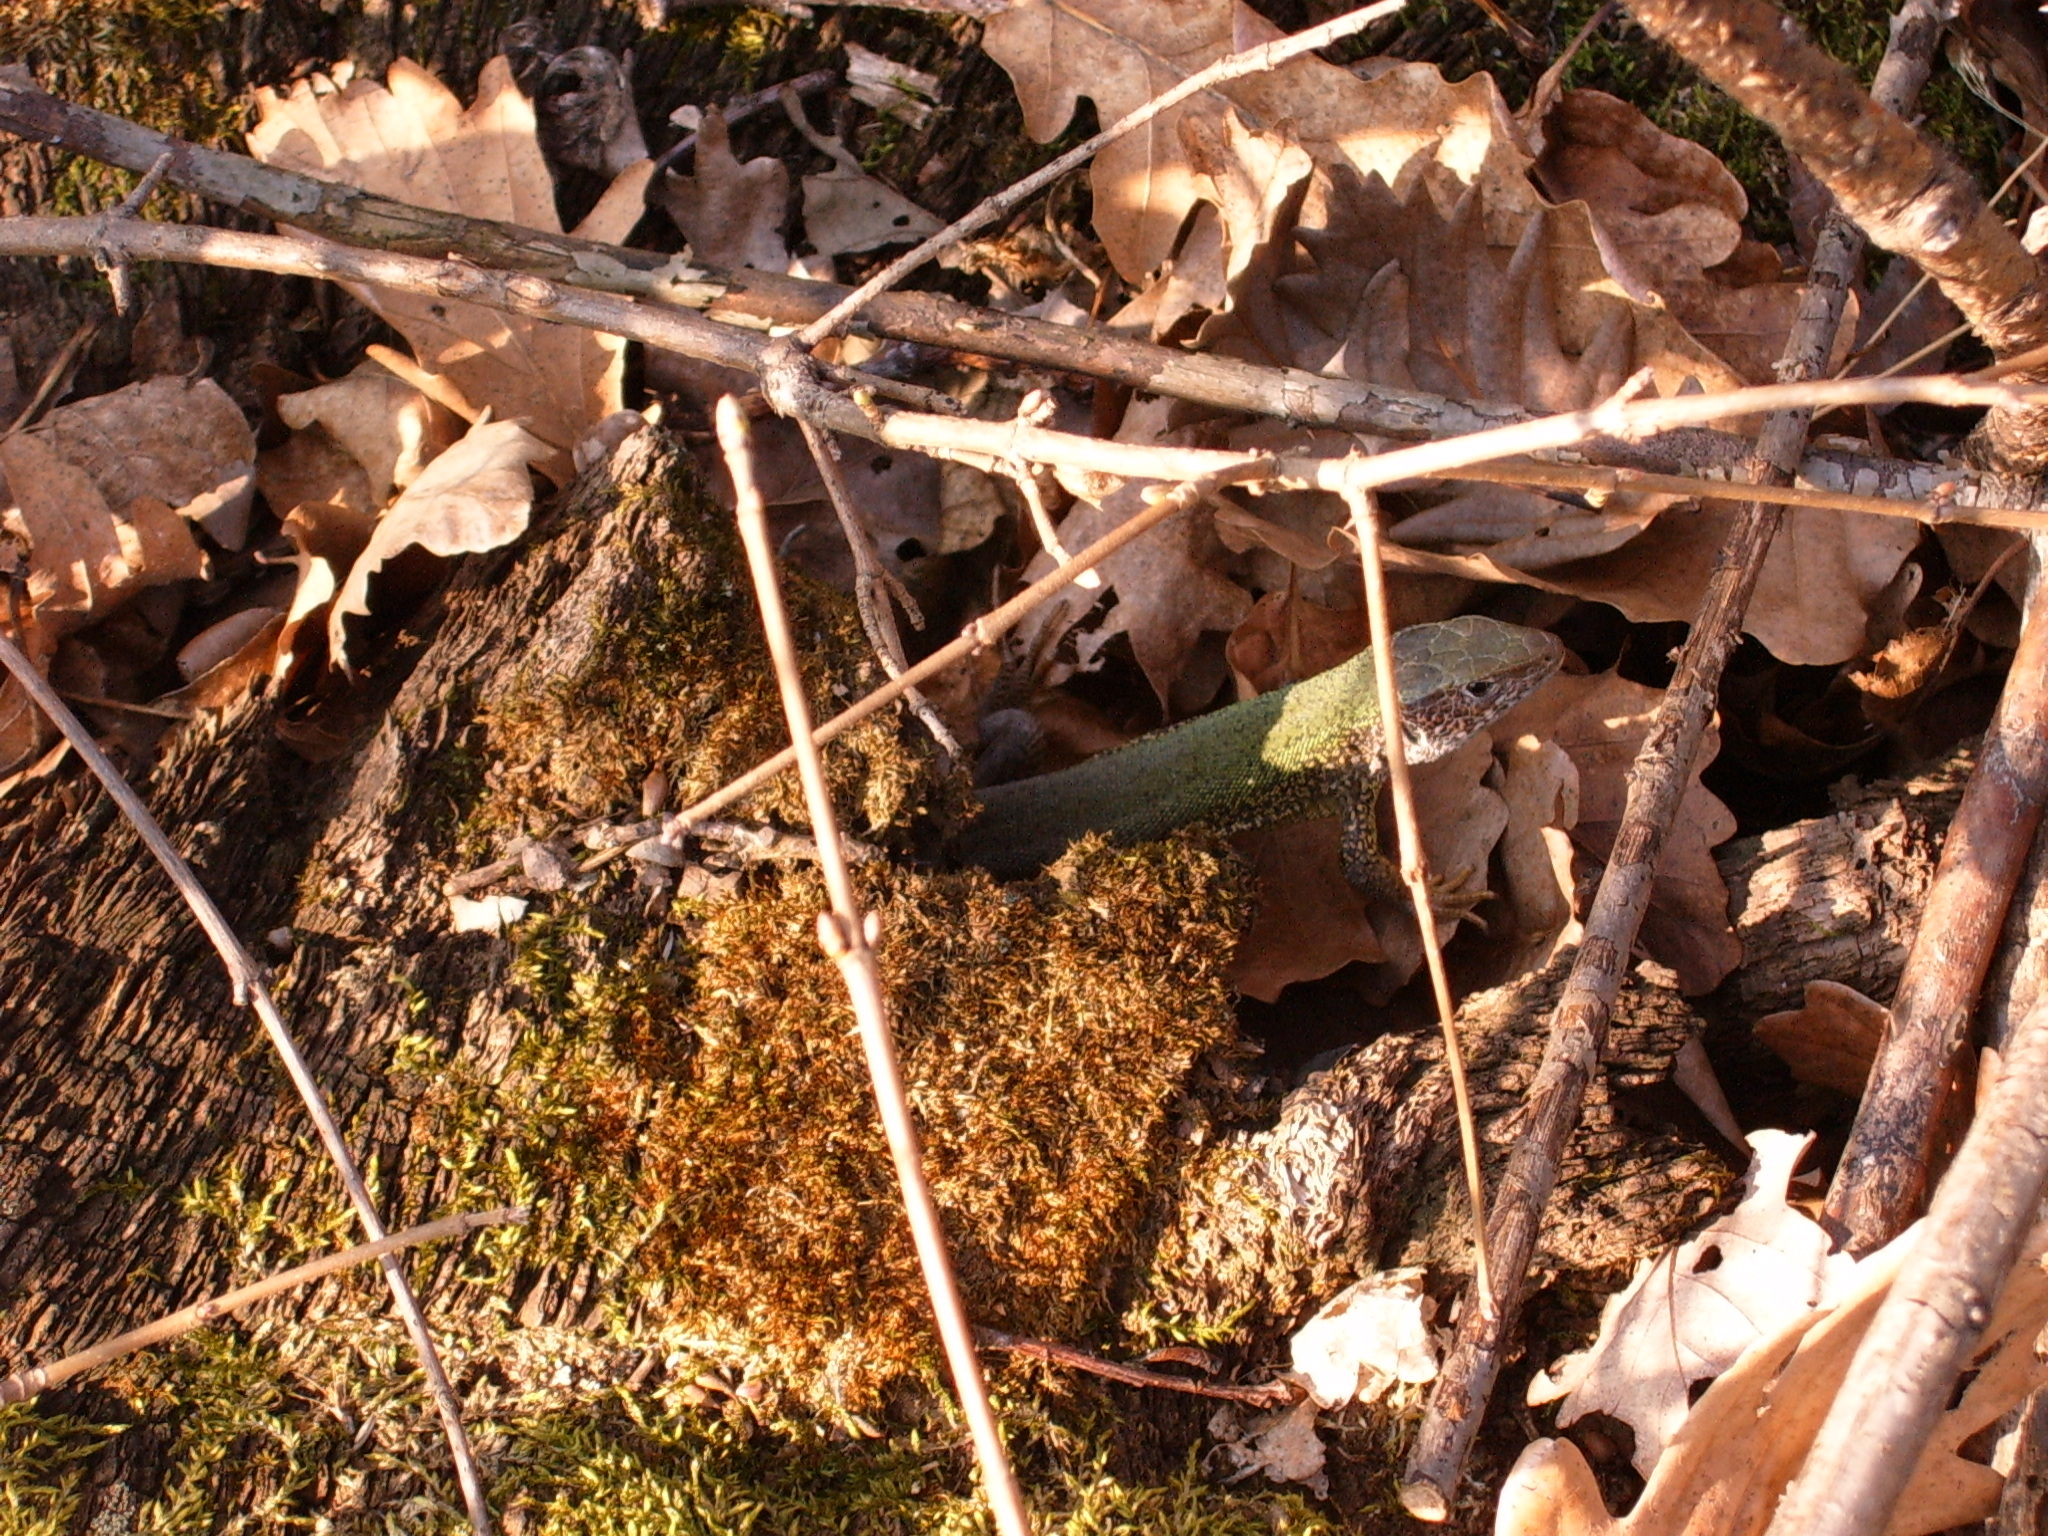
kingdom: Animalia
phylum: Chordata
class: Squamata
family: Lacertidae
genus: Lacerta
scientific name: Lacerta viridis
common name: European green lizard
